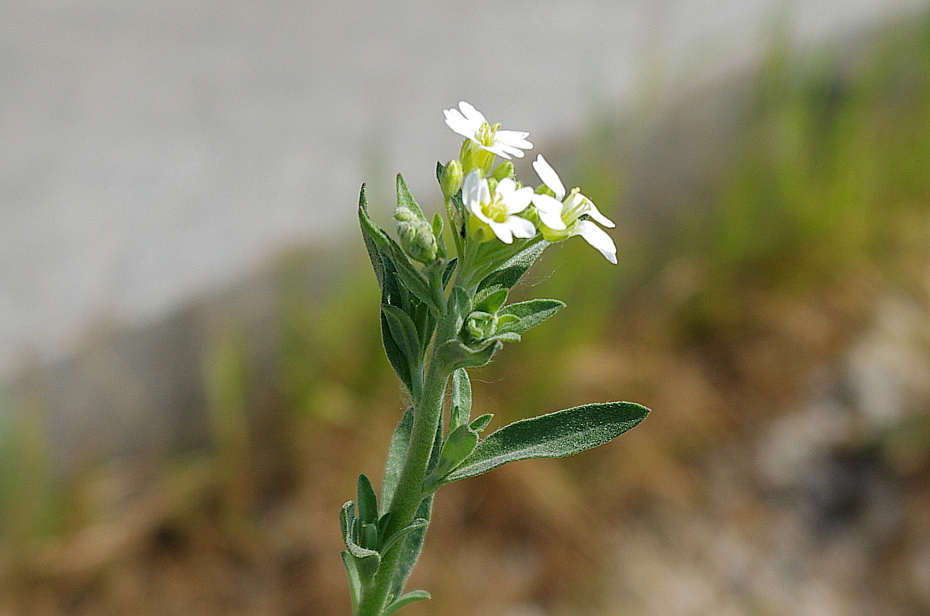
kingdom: Plantae
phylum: Tracheophyta
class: Magnoliopsida
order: Brassicales
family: Brassicaceae
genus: Berteroa
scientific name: Berteroa incana
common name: Hoary alison
